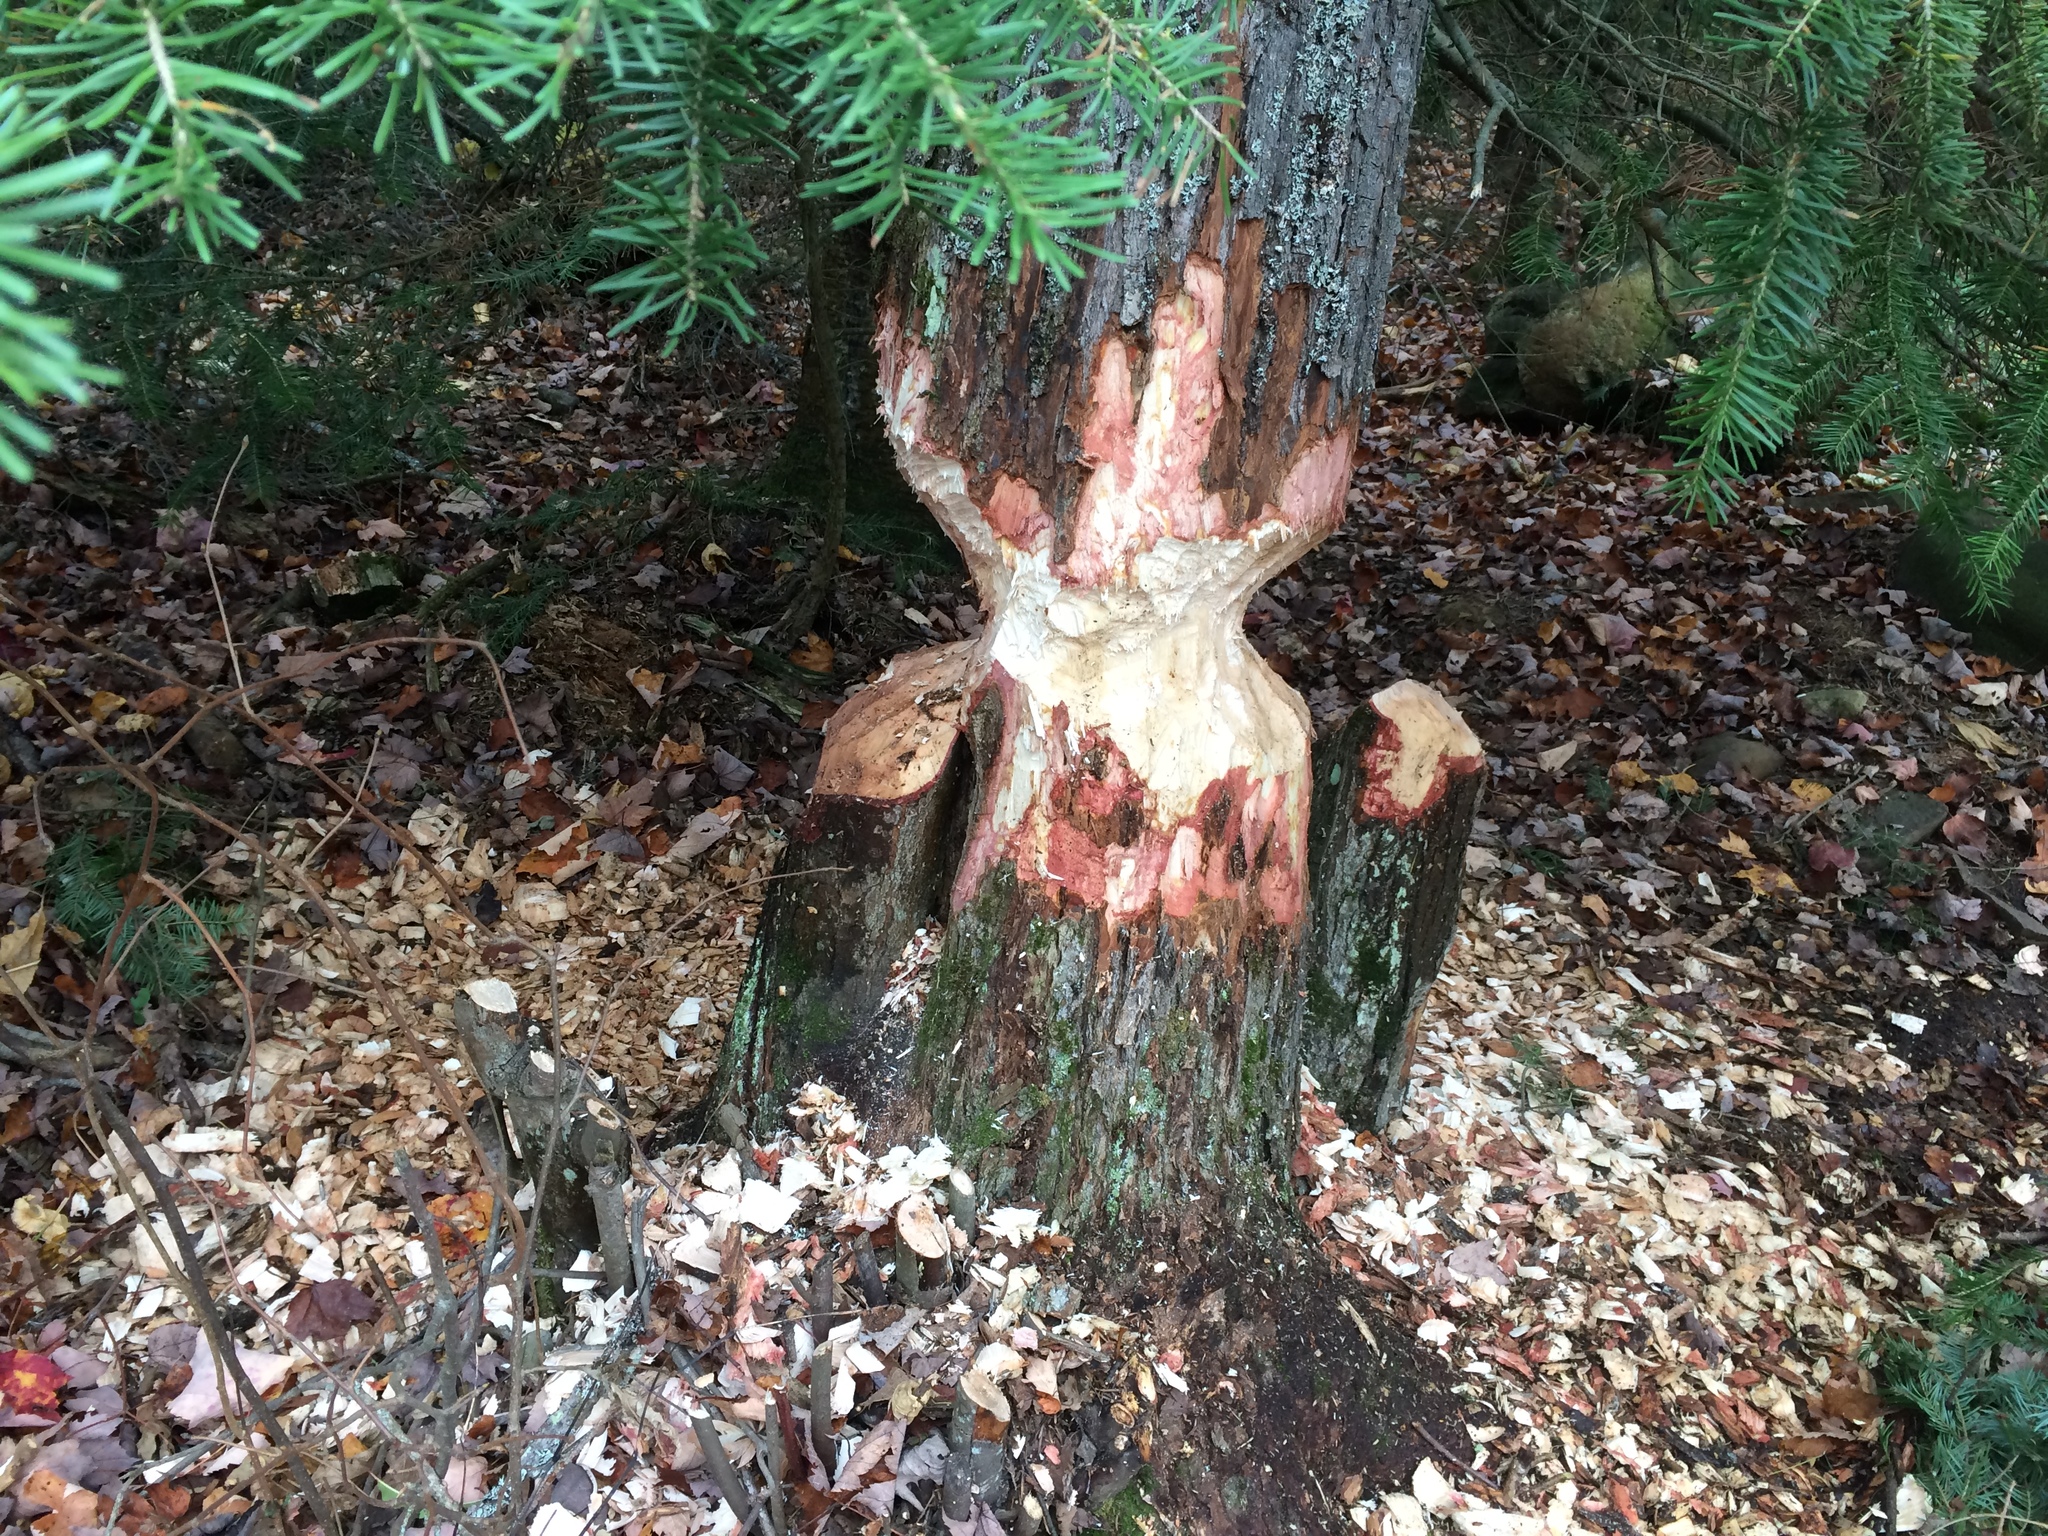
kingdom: Animalia
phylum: Chordata
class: Mammalia
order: Rodentia
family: Castoridae
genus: Castor
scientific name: Castor canadensis
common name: American beaver
